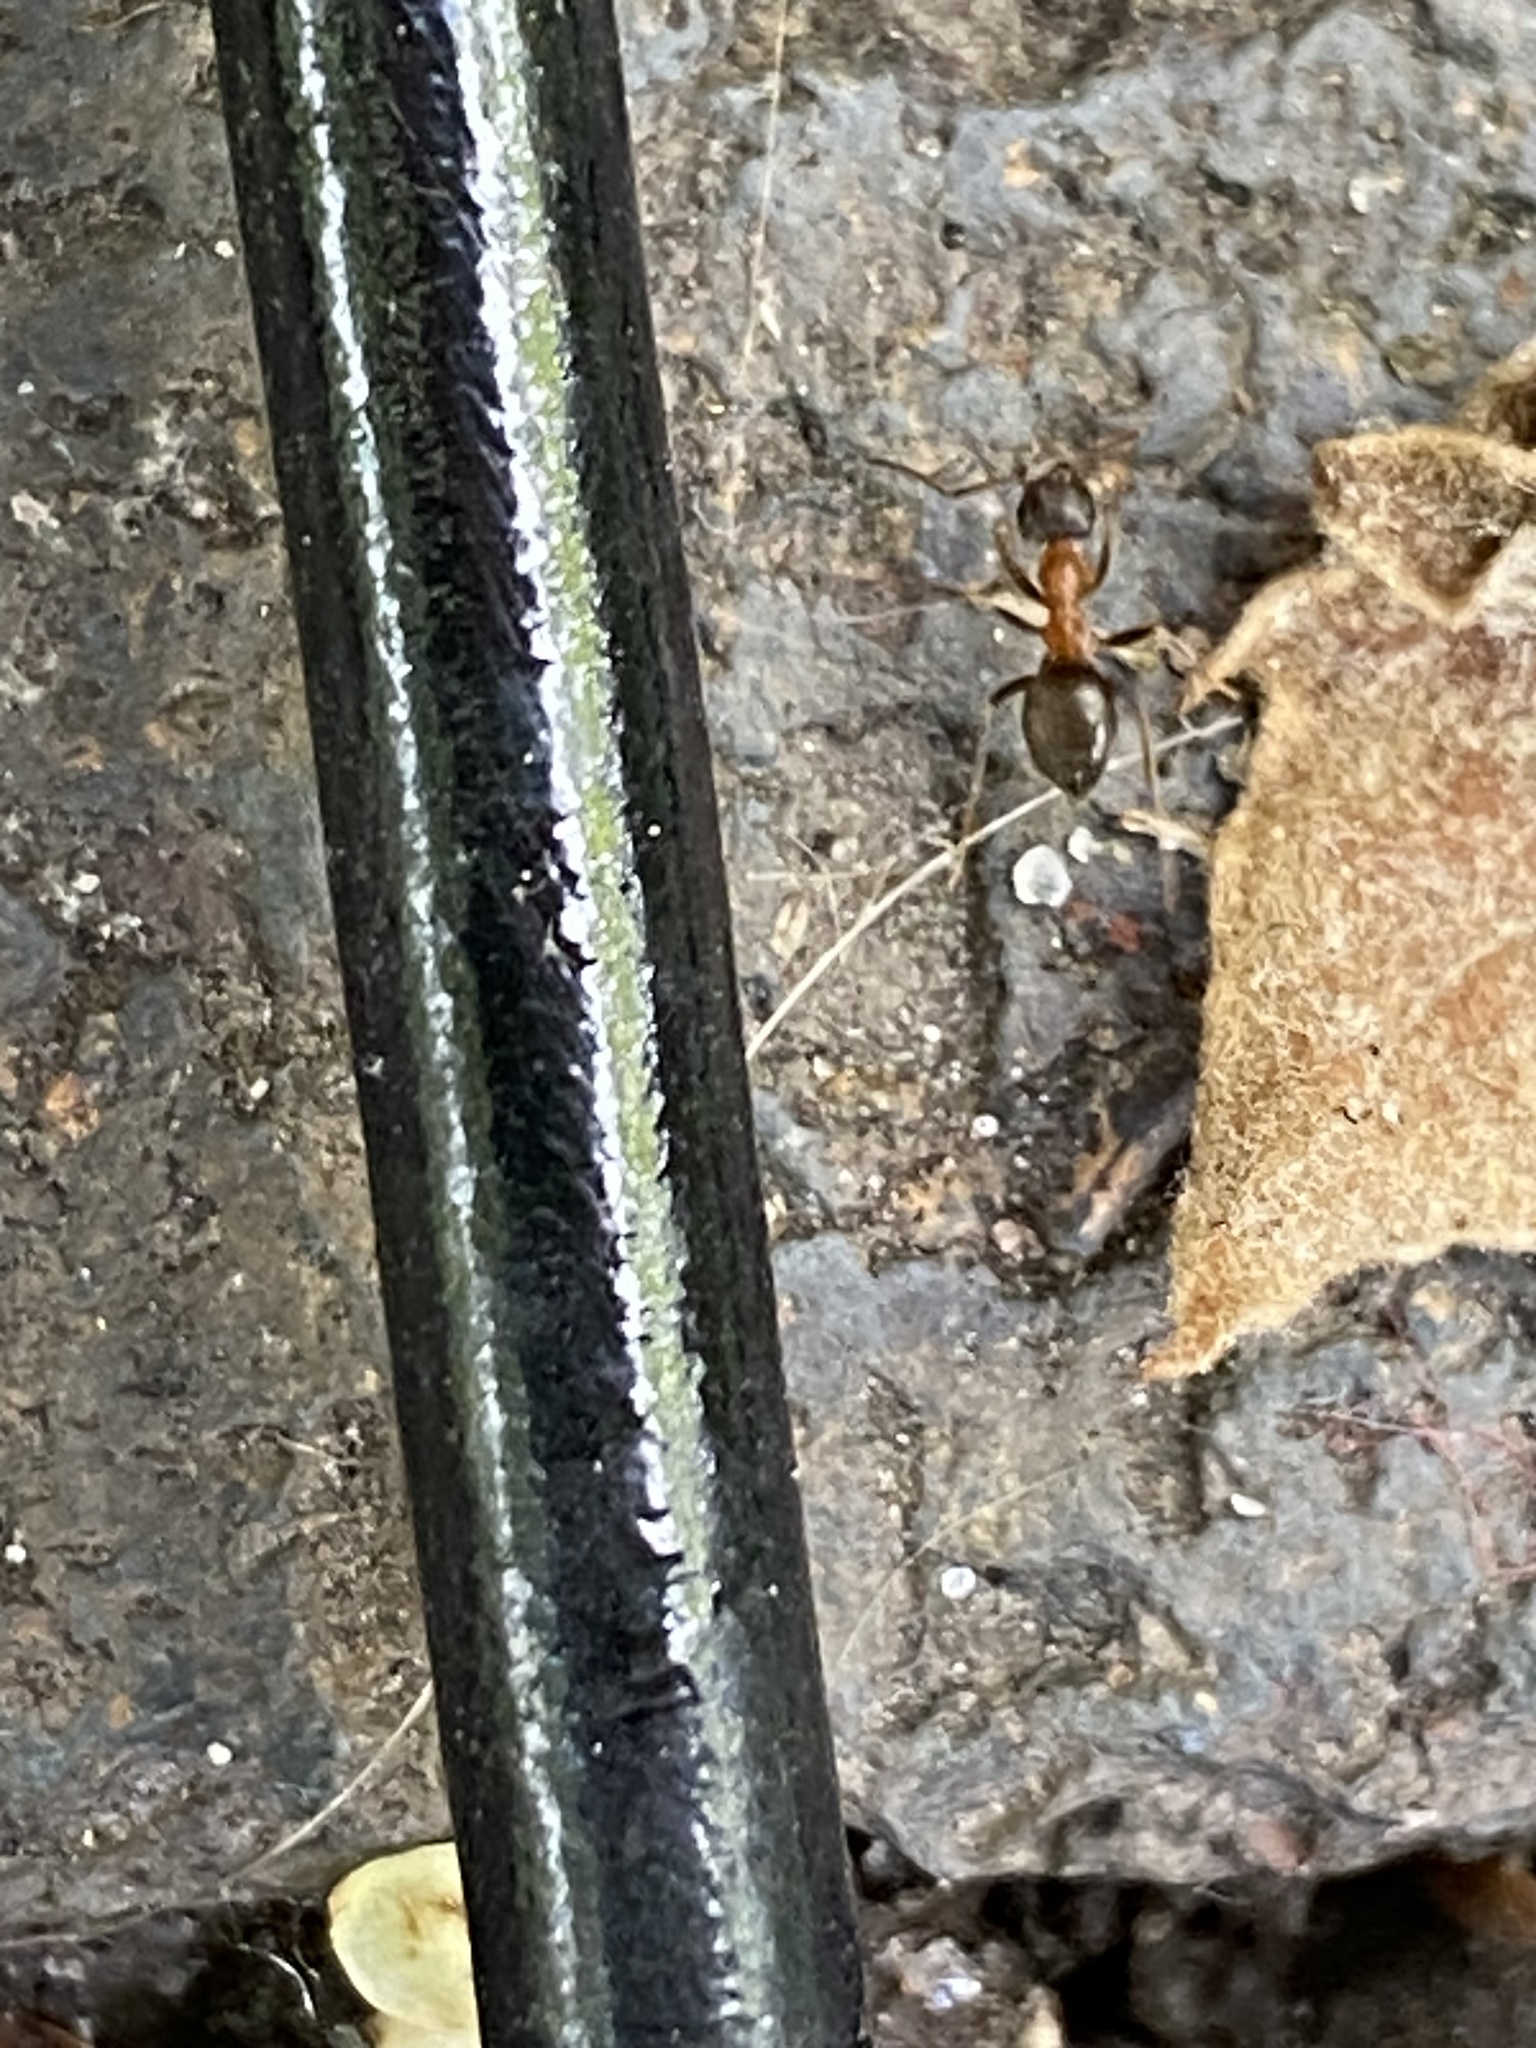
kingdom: Animalia
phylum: Arthropoda
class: Insecta
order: Hymenoptera
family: Formicidae
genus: Lasius
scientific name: Lasius emarginatus
